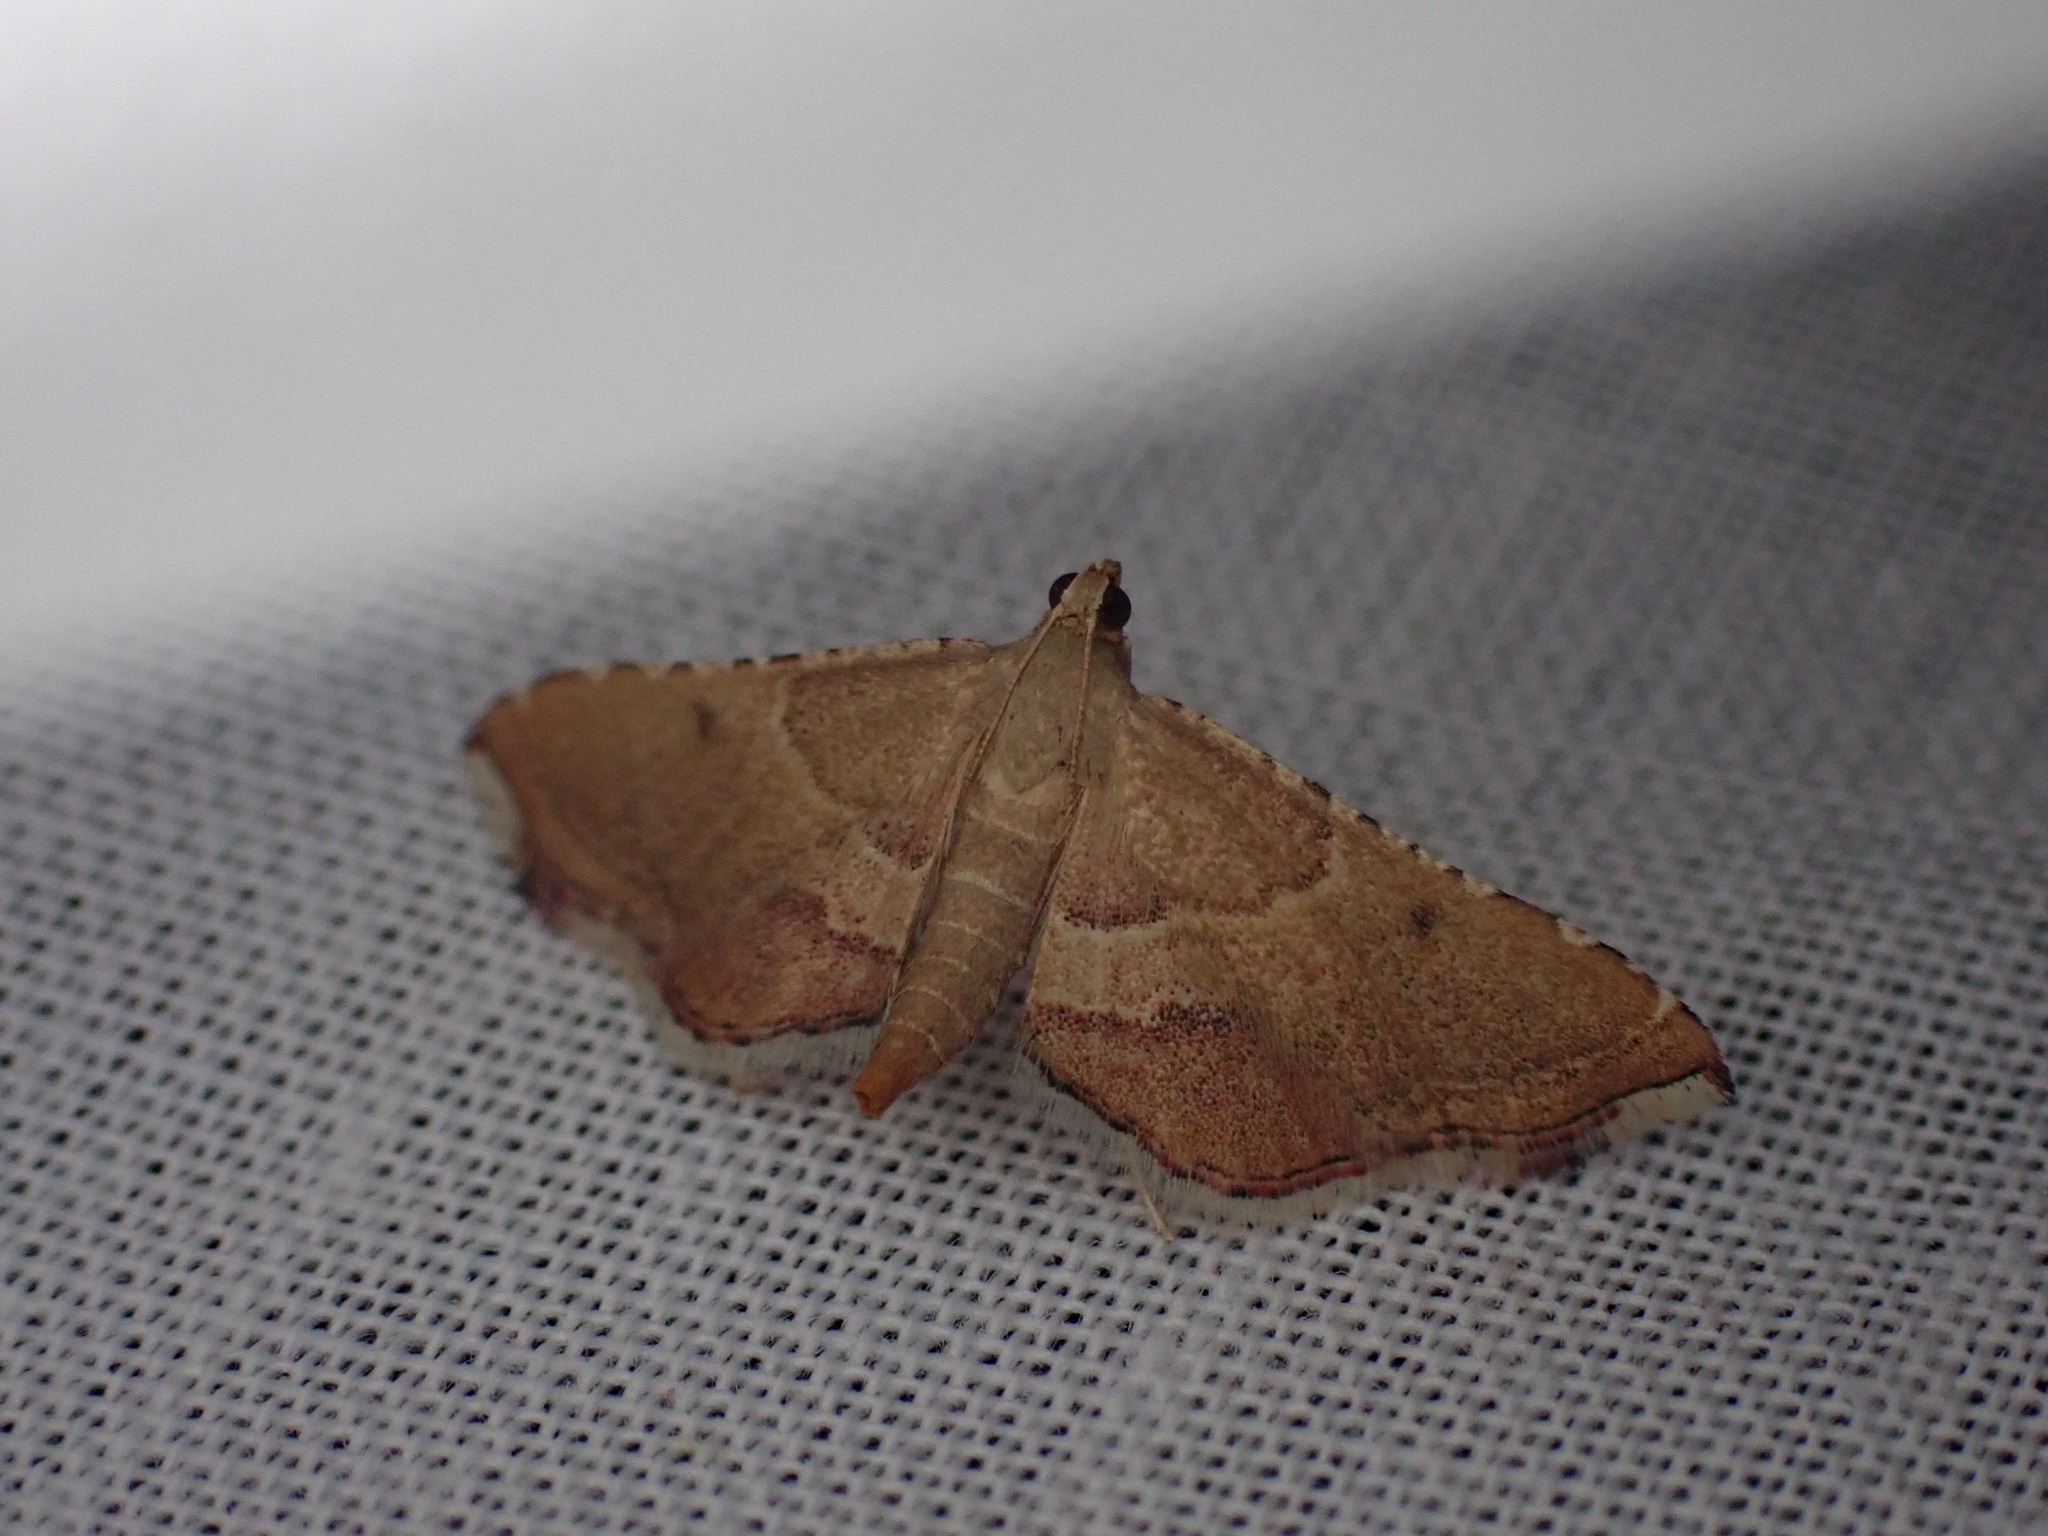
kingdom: Animalia
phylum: Arthropoda
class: Insecta
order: Lepidoptera
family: Pyralidae
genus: Endotricha
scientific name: Endotricha flammealis
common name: Rosy tabby
